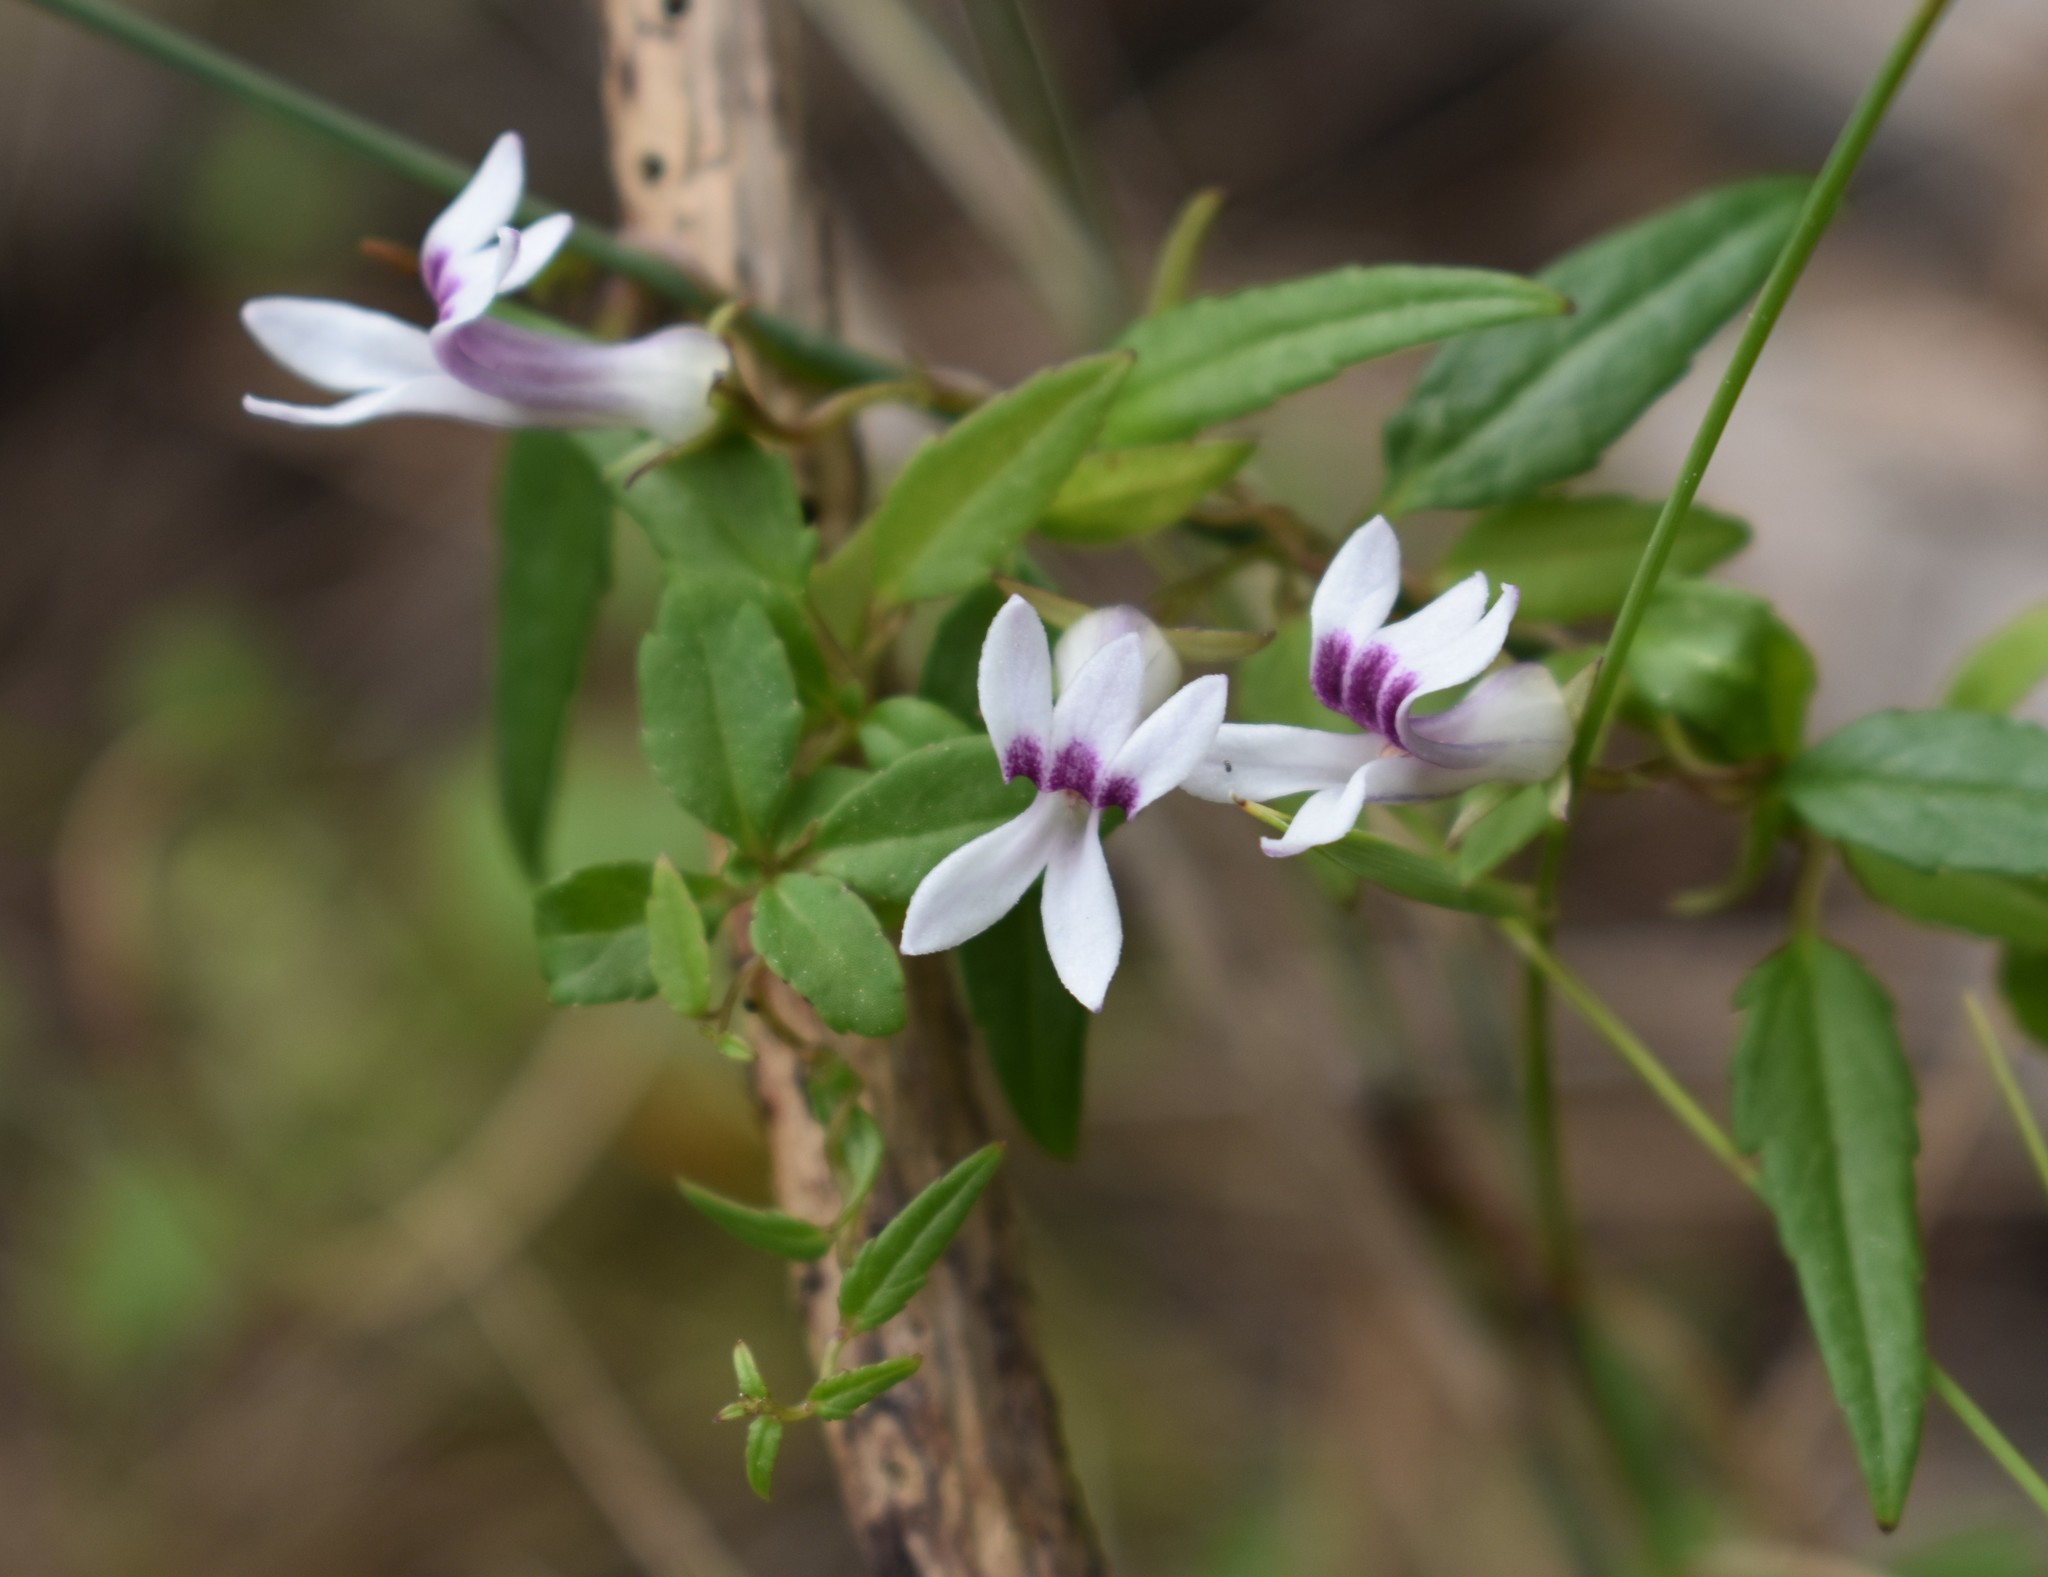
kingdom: Plantae
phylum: Tracheophyta
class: Magnoliopsida
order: Asterales
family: Campanulaceae
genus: Cyphia
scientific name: Cyphia sylvatica
